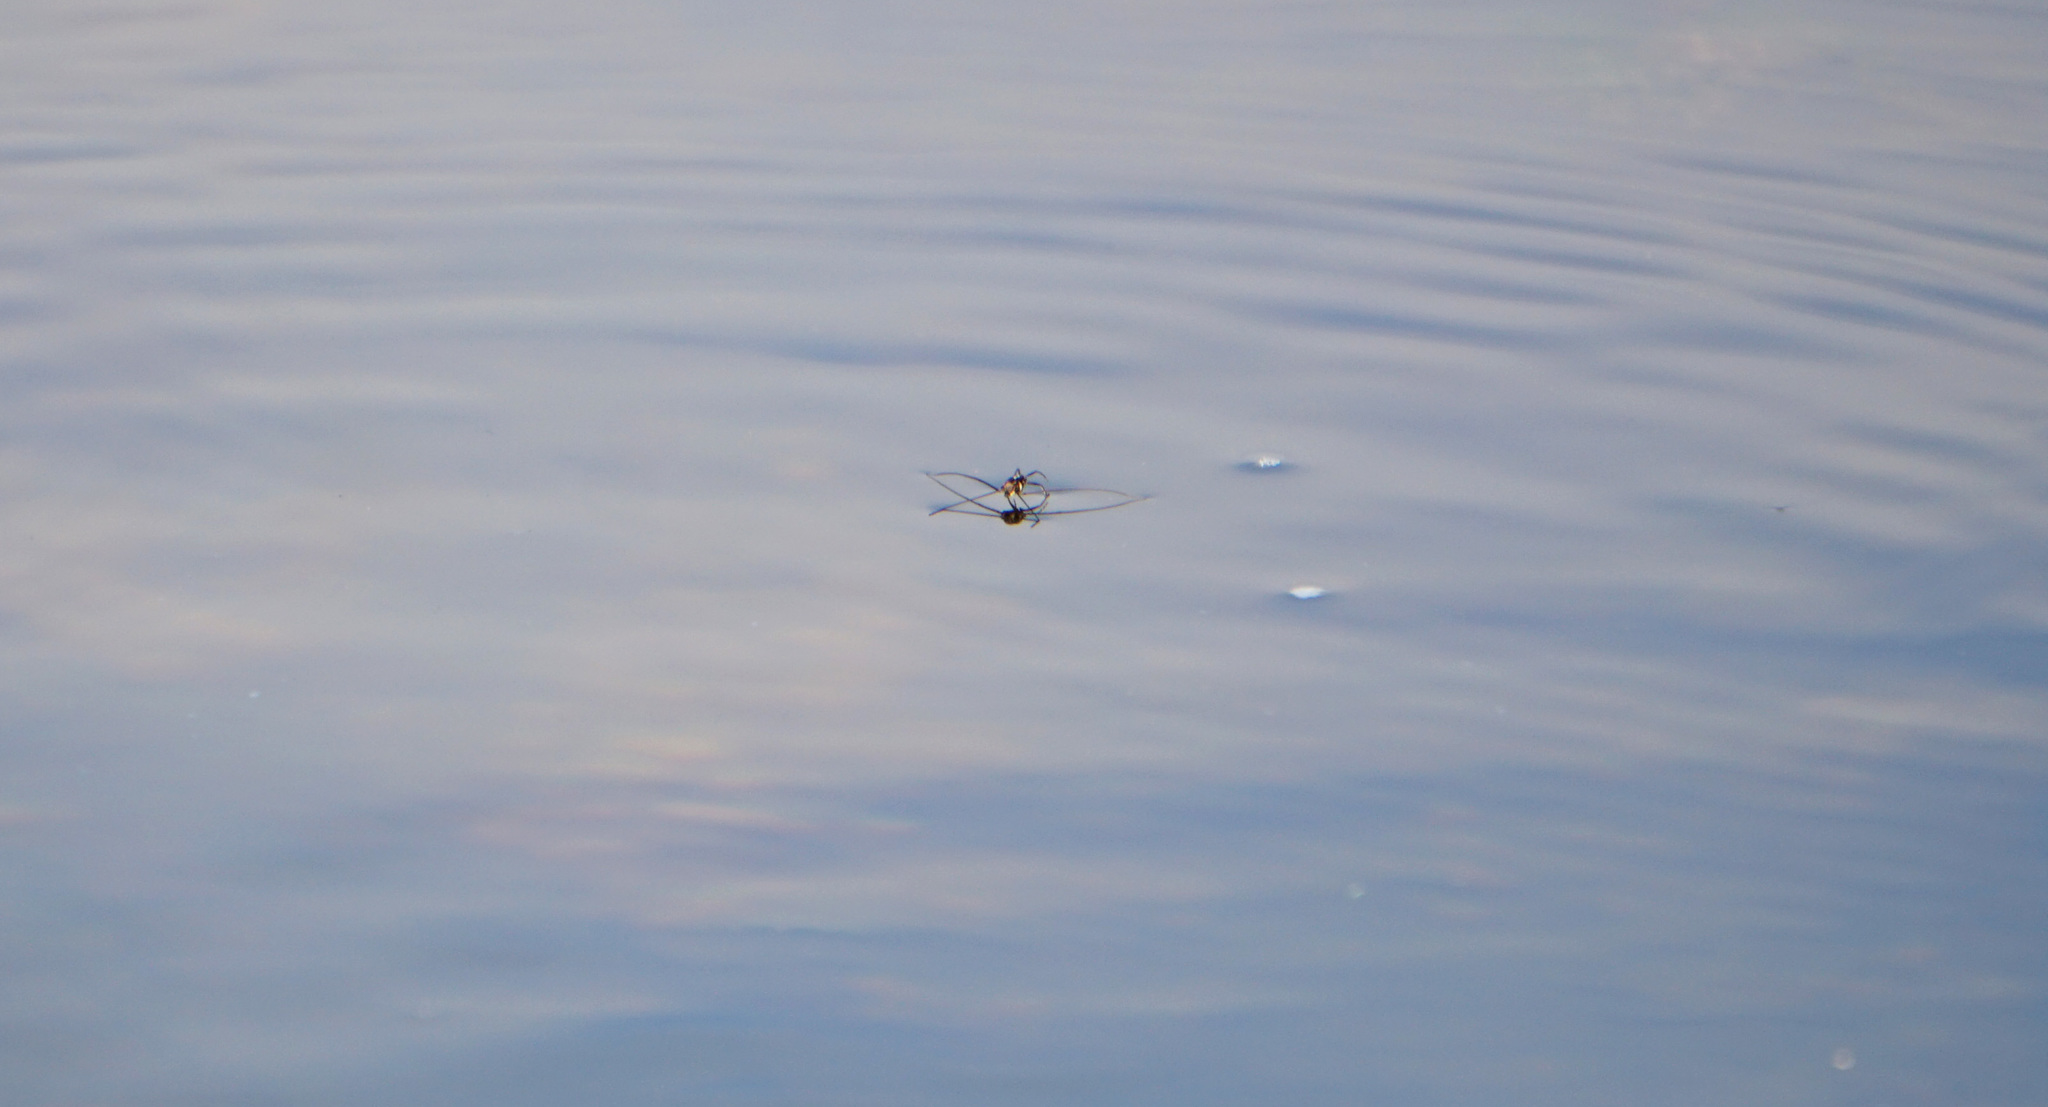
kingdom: Animalia
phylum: Arthropoda
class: Insecta
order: Hemiptera
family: Gerridae
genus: Metrobates
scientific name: Metrobates hesperius
